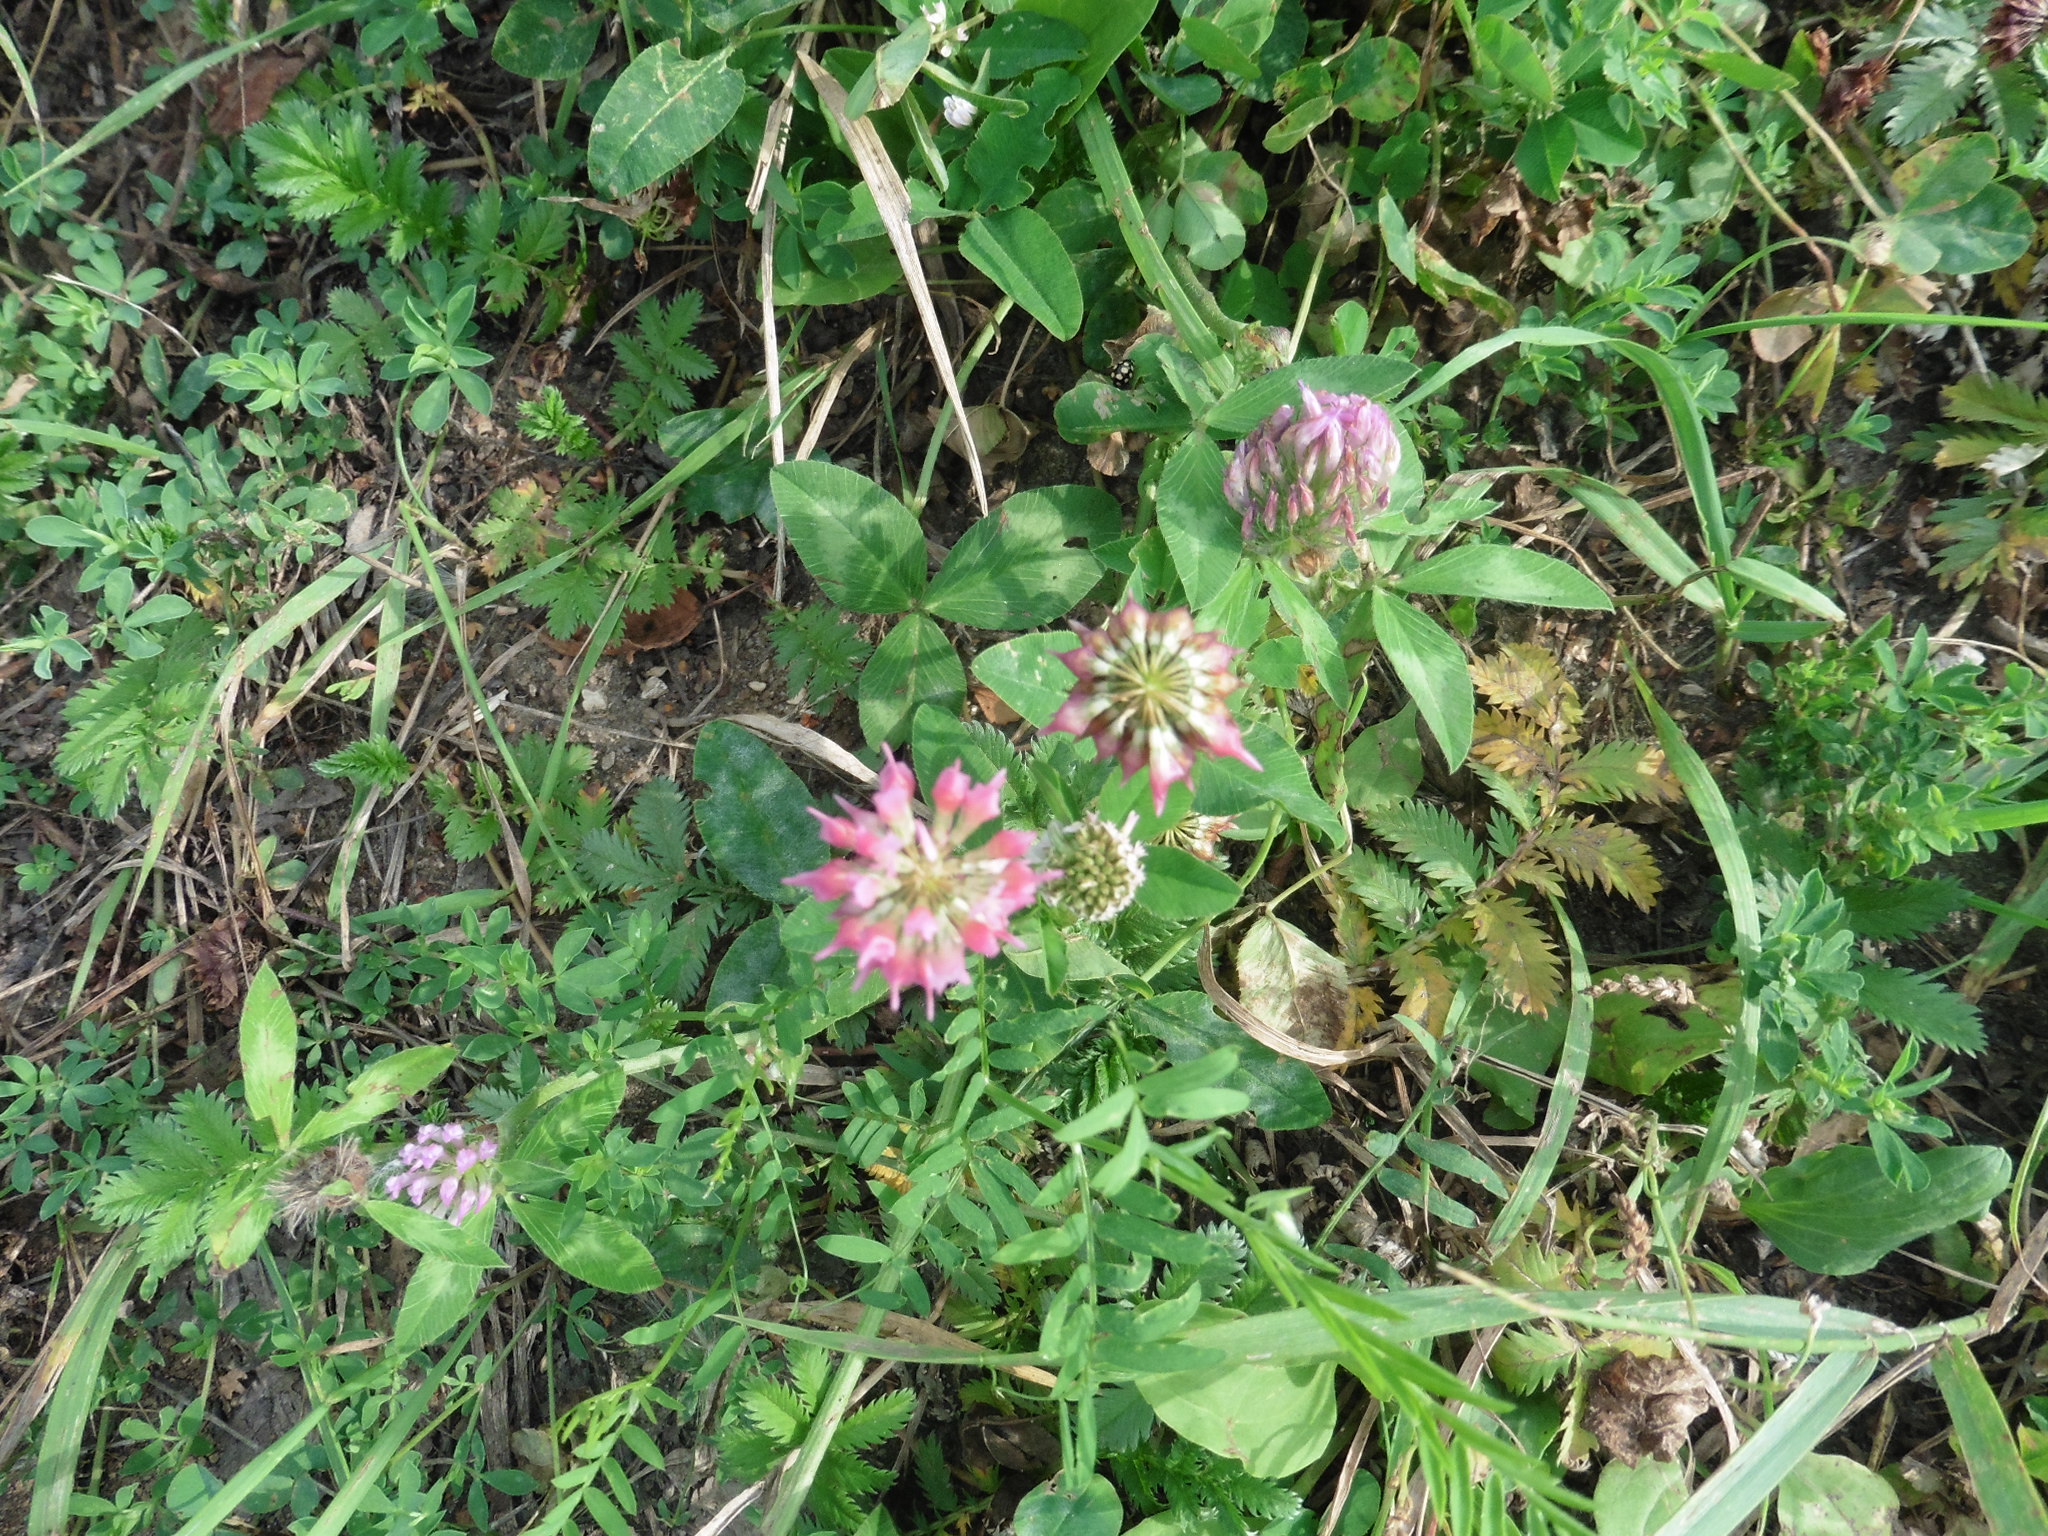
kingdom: Plantae
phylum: Tracheophyta
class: Magnoliopsida
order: Fabales
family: Fabaceae
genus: Trifolium
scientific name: Trifolium hybridum
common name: Alsike clover
